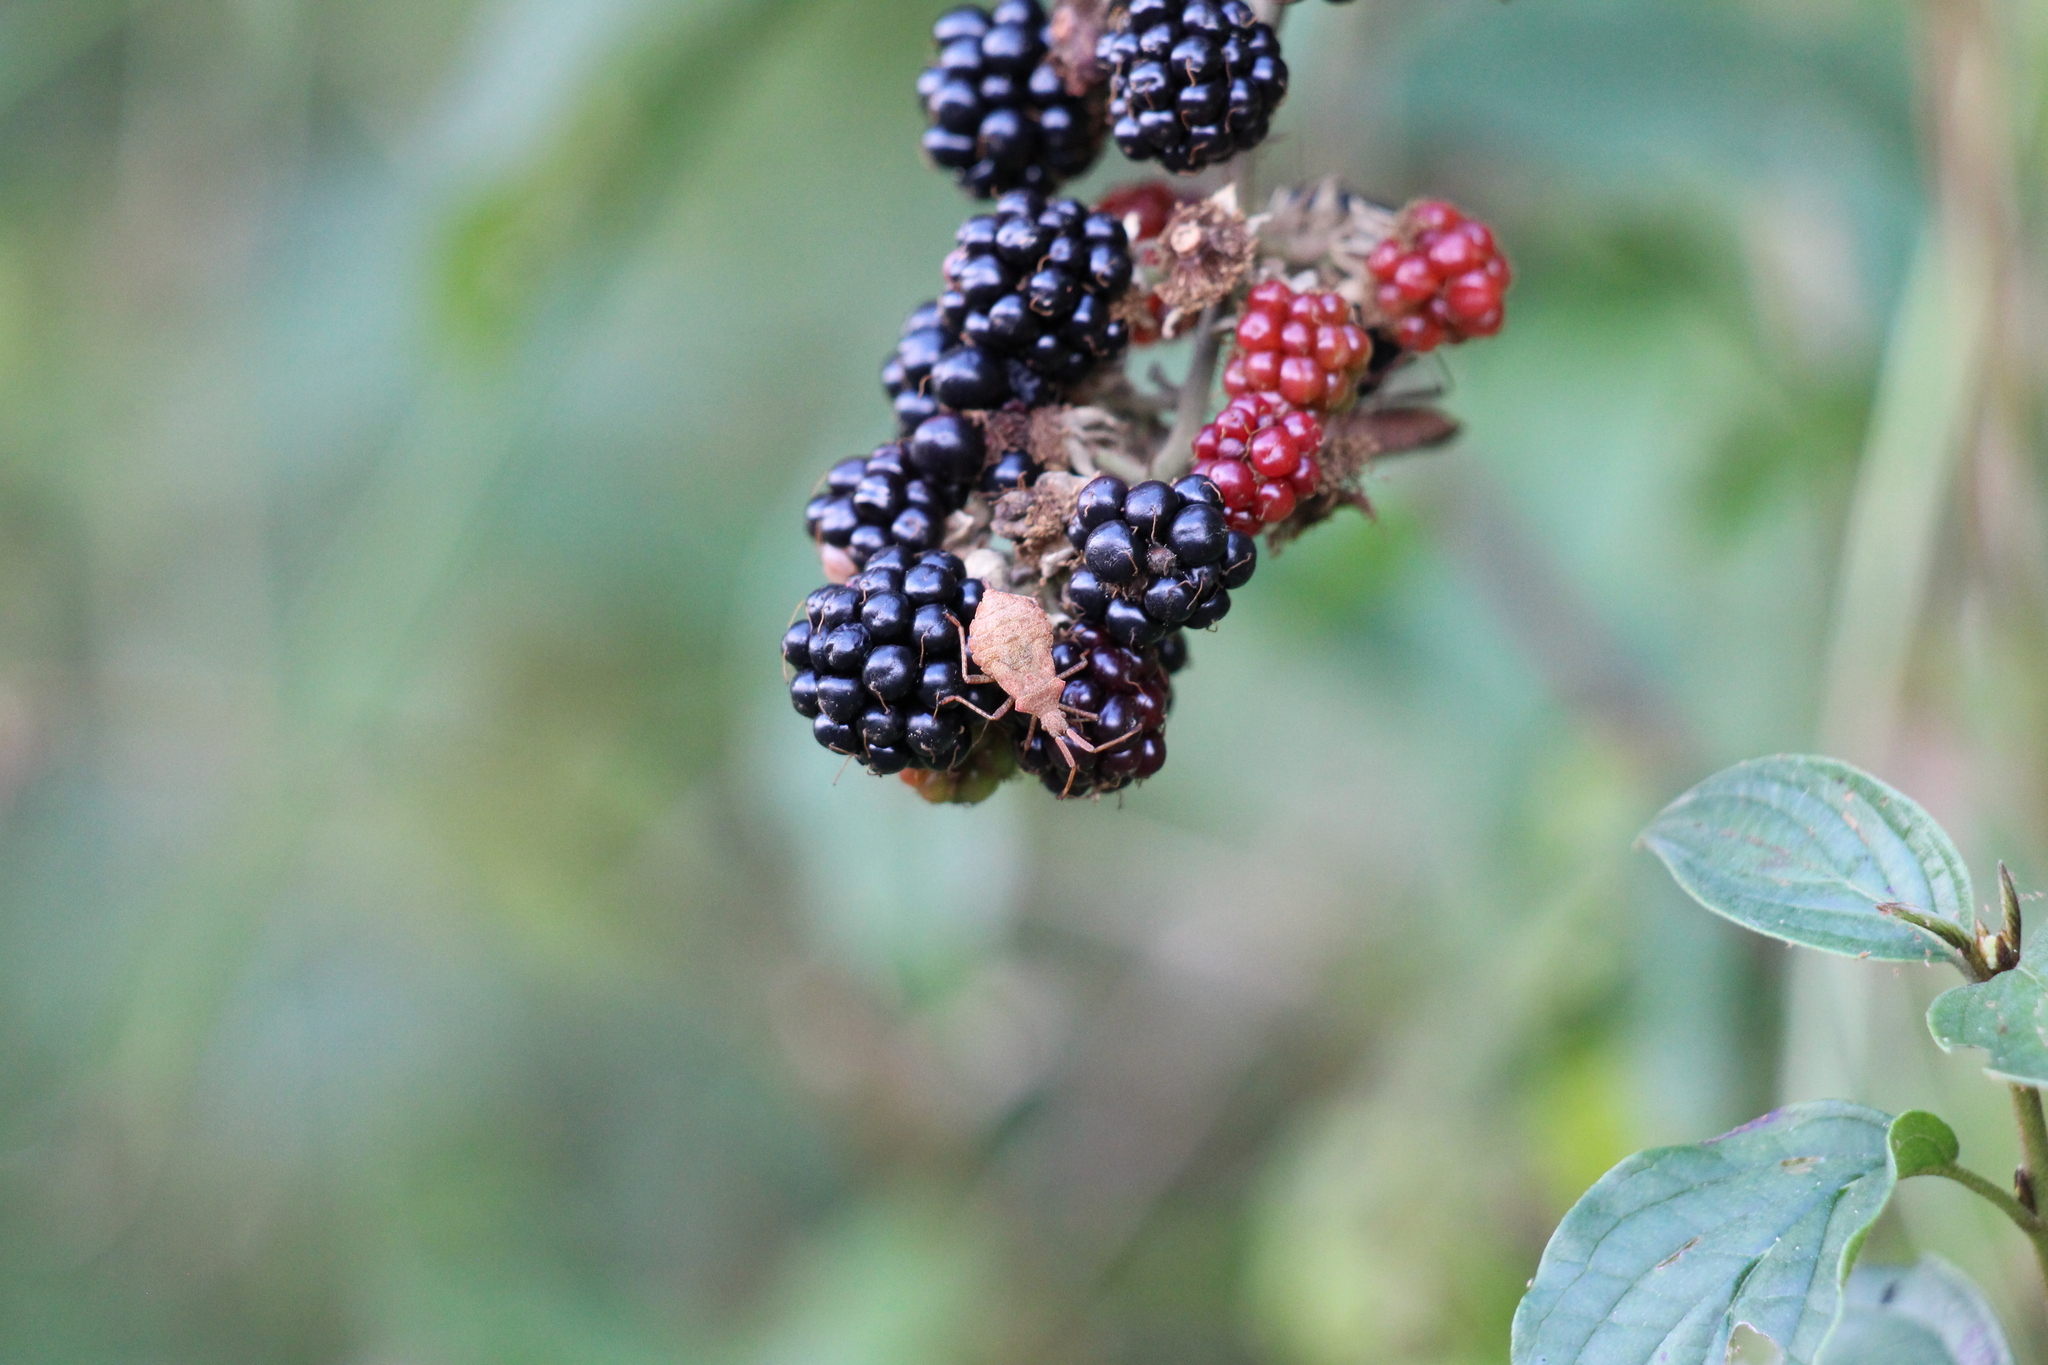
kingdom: Animalia
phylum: Arthropoda
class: Insecta
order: Hemiptera
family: Coreidae
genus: Coreus
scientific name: Coreus marginatus
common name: Dock bug
